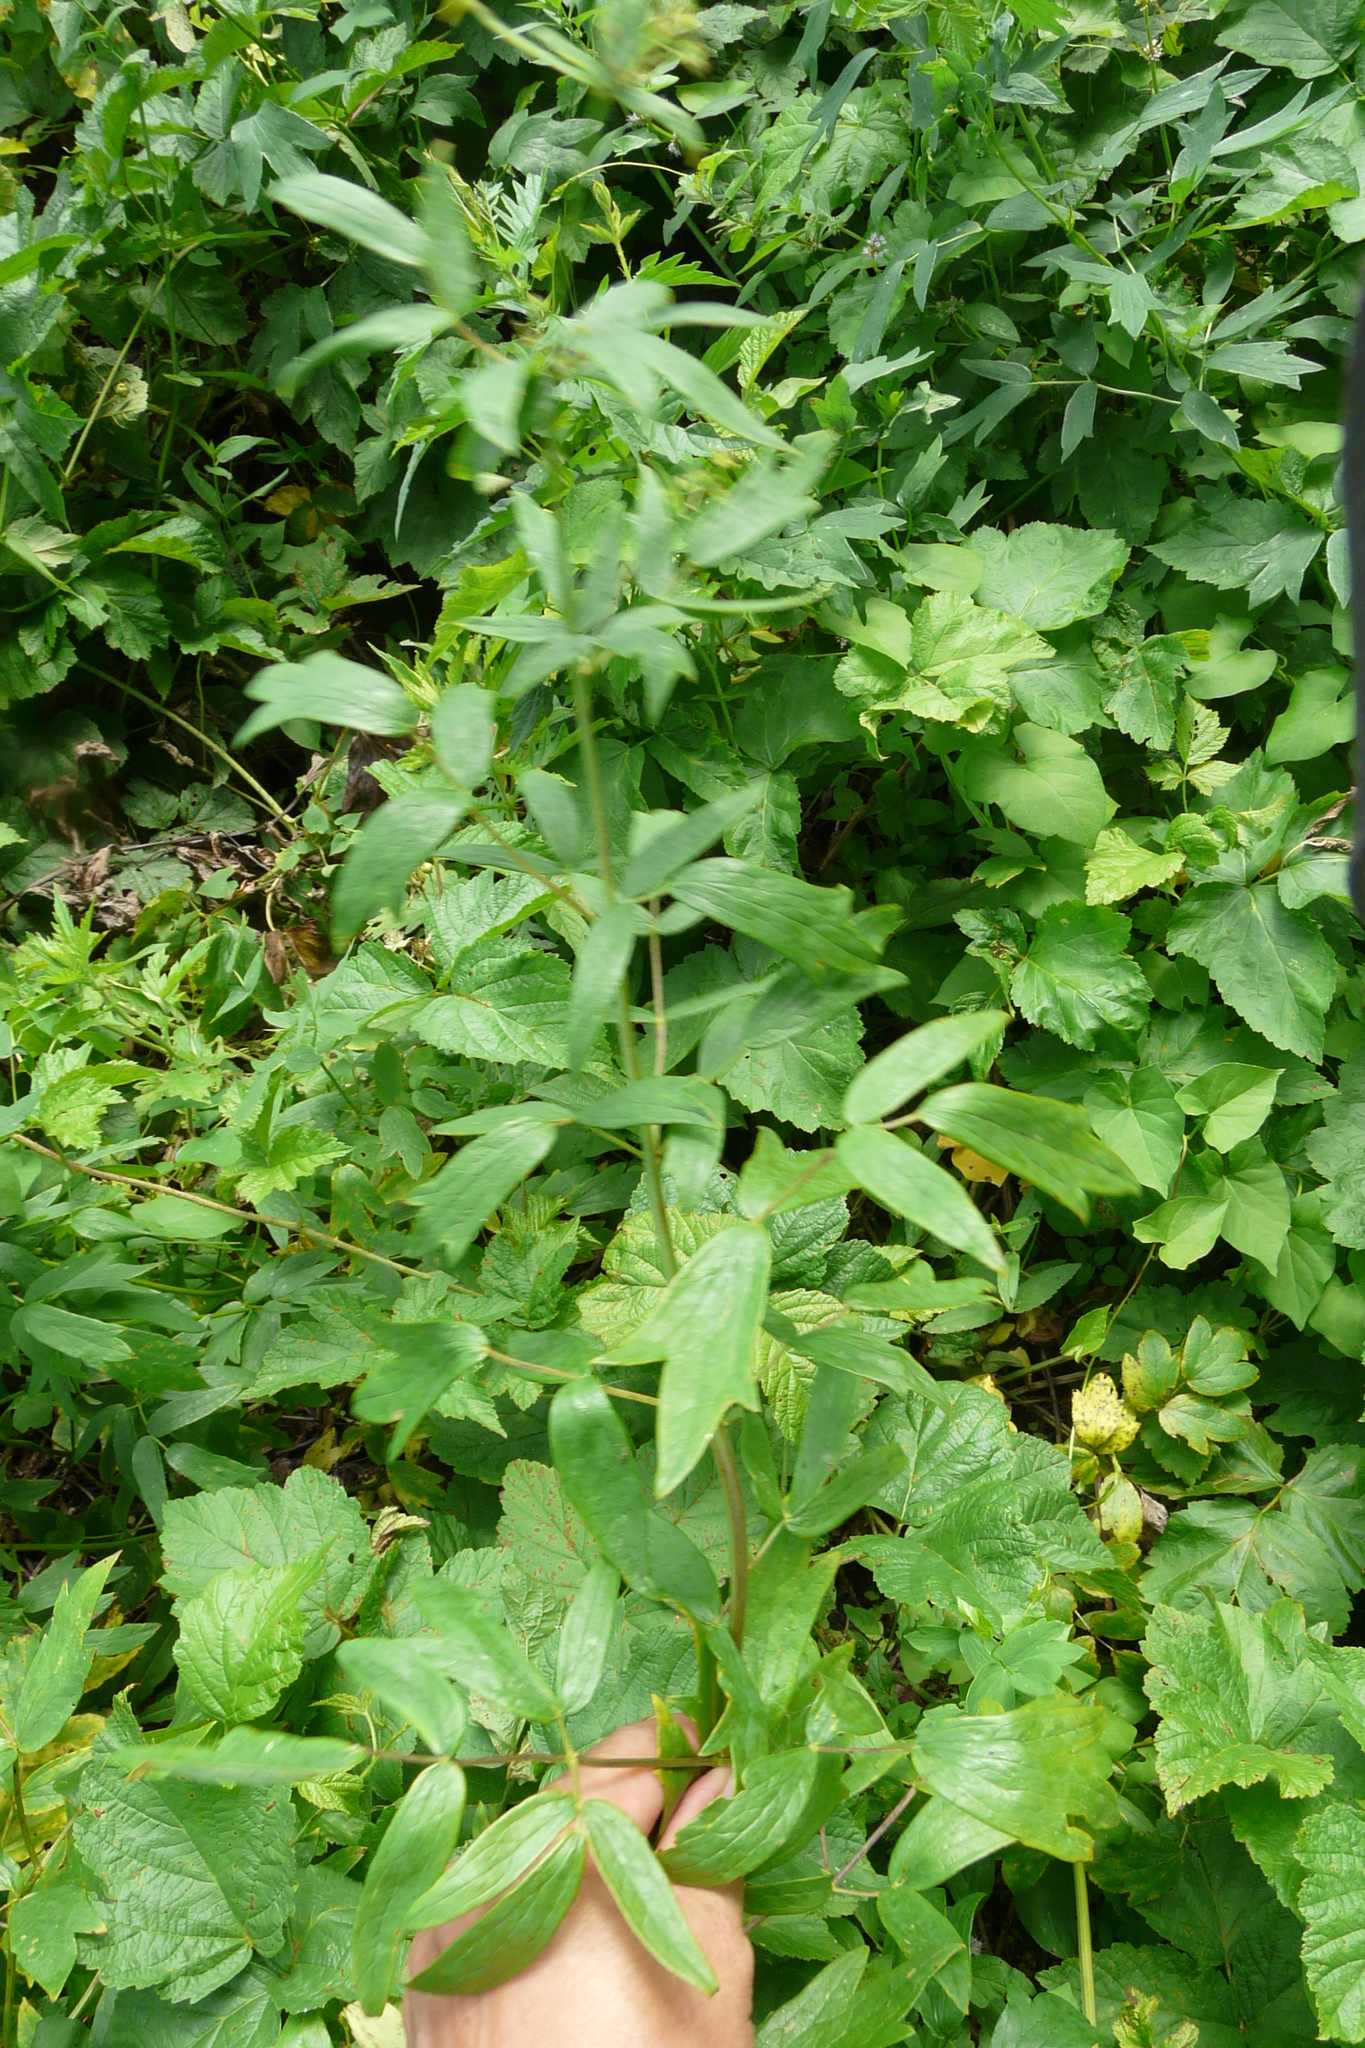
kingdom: Plantae
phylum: Tracheophyta
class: Magnoliopsida
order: Ranunculales
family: Ranunculaceae
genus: Thalictrum
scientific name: Thalictrum flavum
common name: Common meadow-rue
